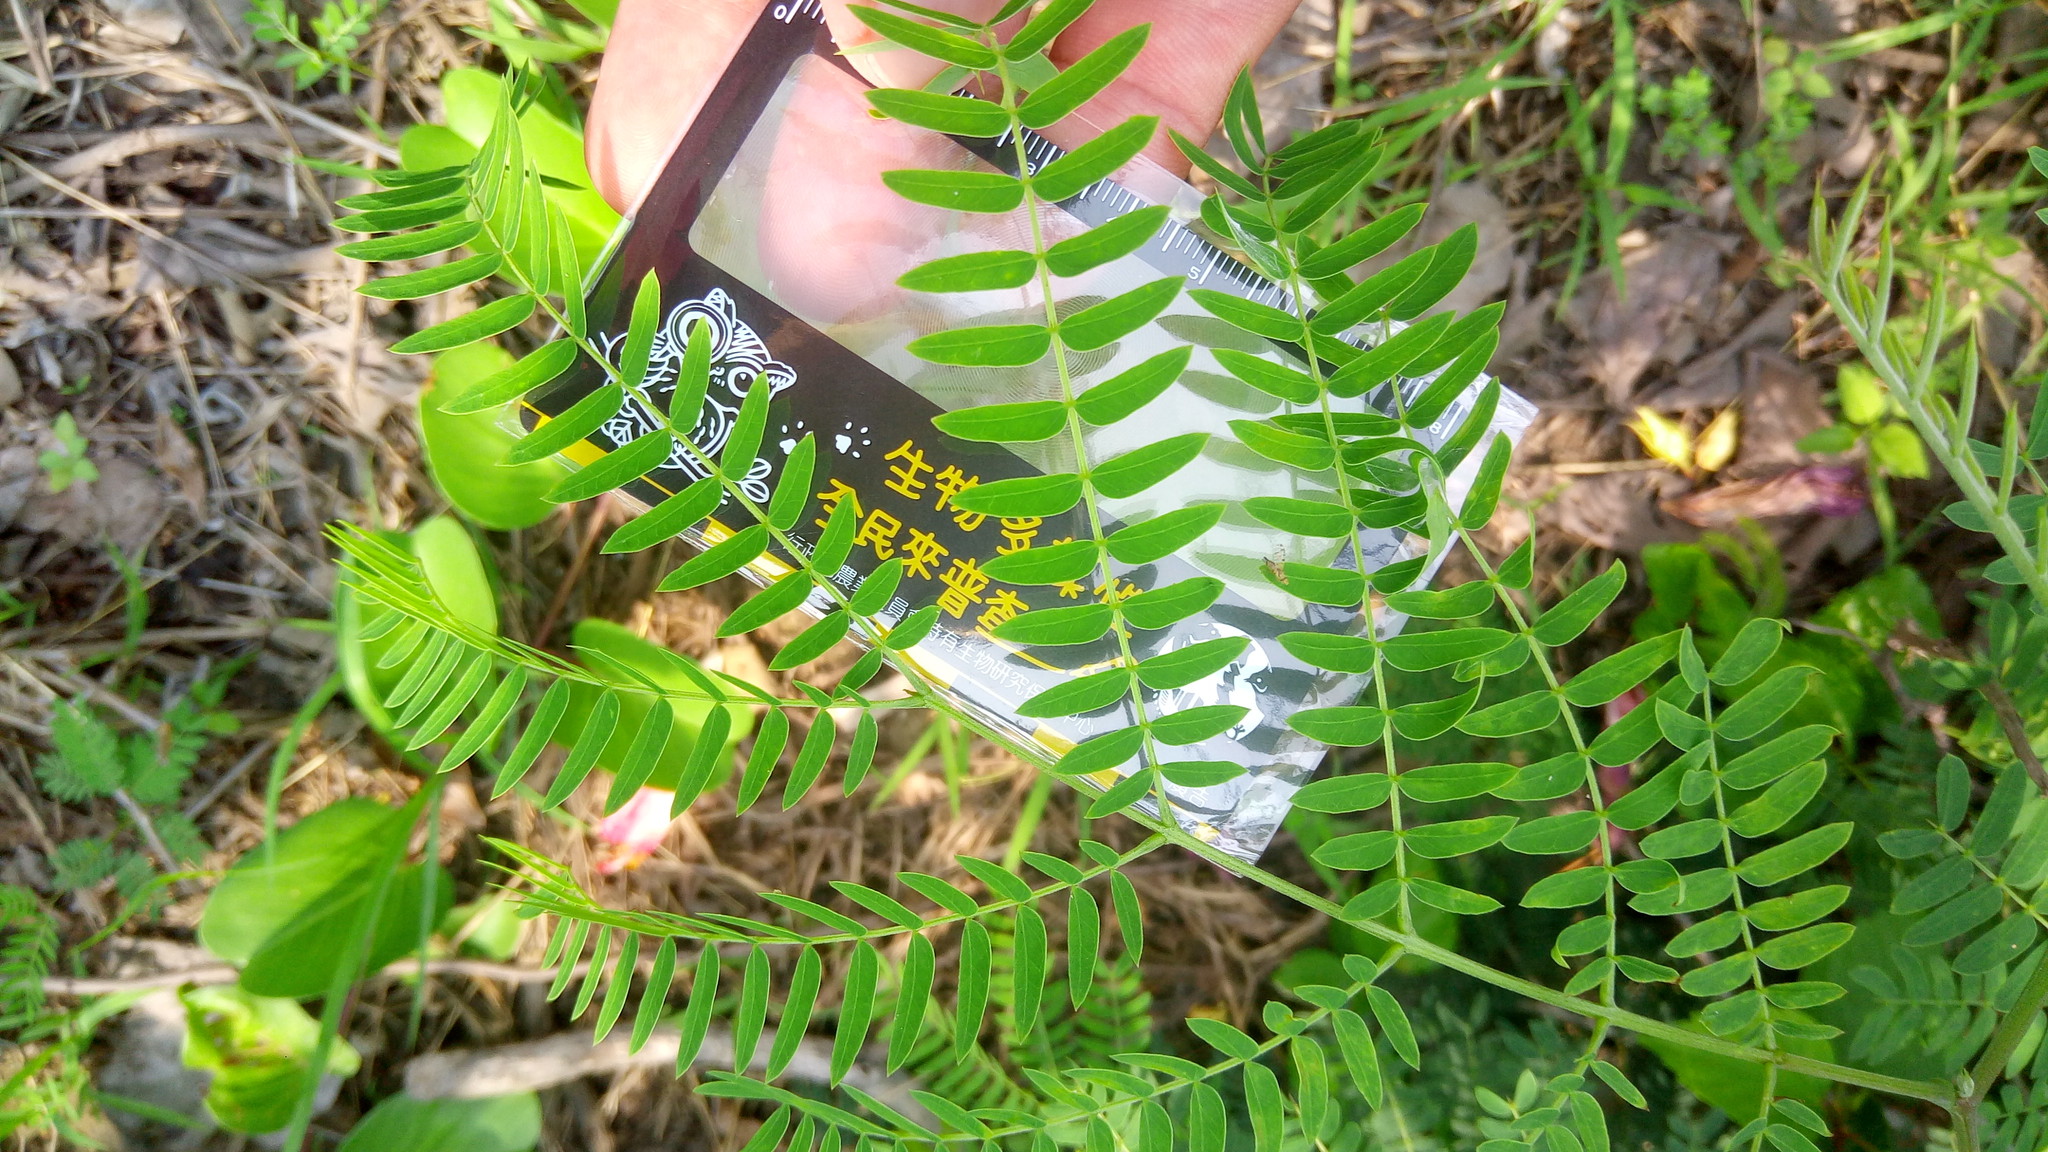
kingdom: Plantae
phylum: Tracheophyta
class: Magnoliopsida
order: Fabales
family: Fabaceae
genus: Leucaena
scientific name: Leucaena leucocephala
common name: White leadtree
